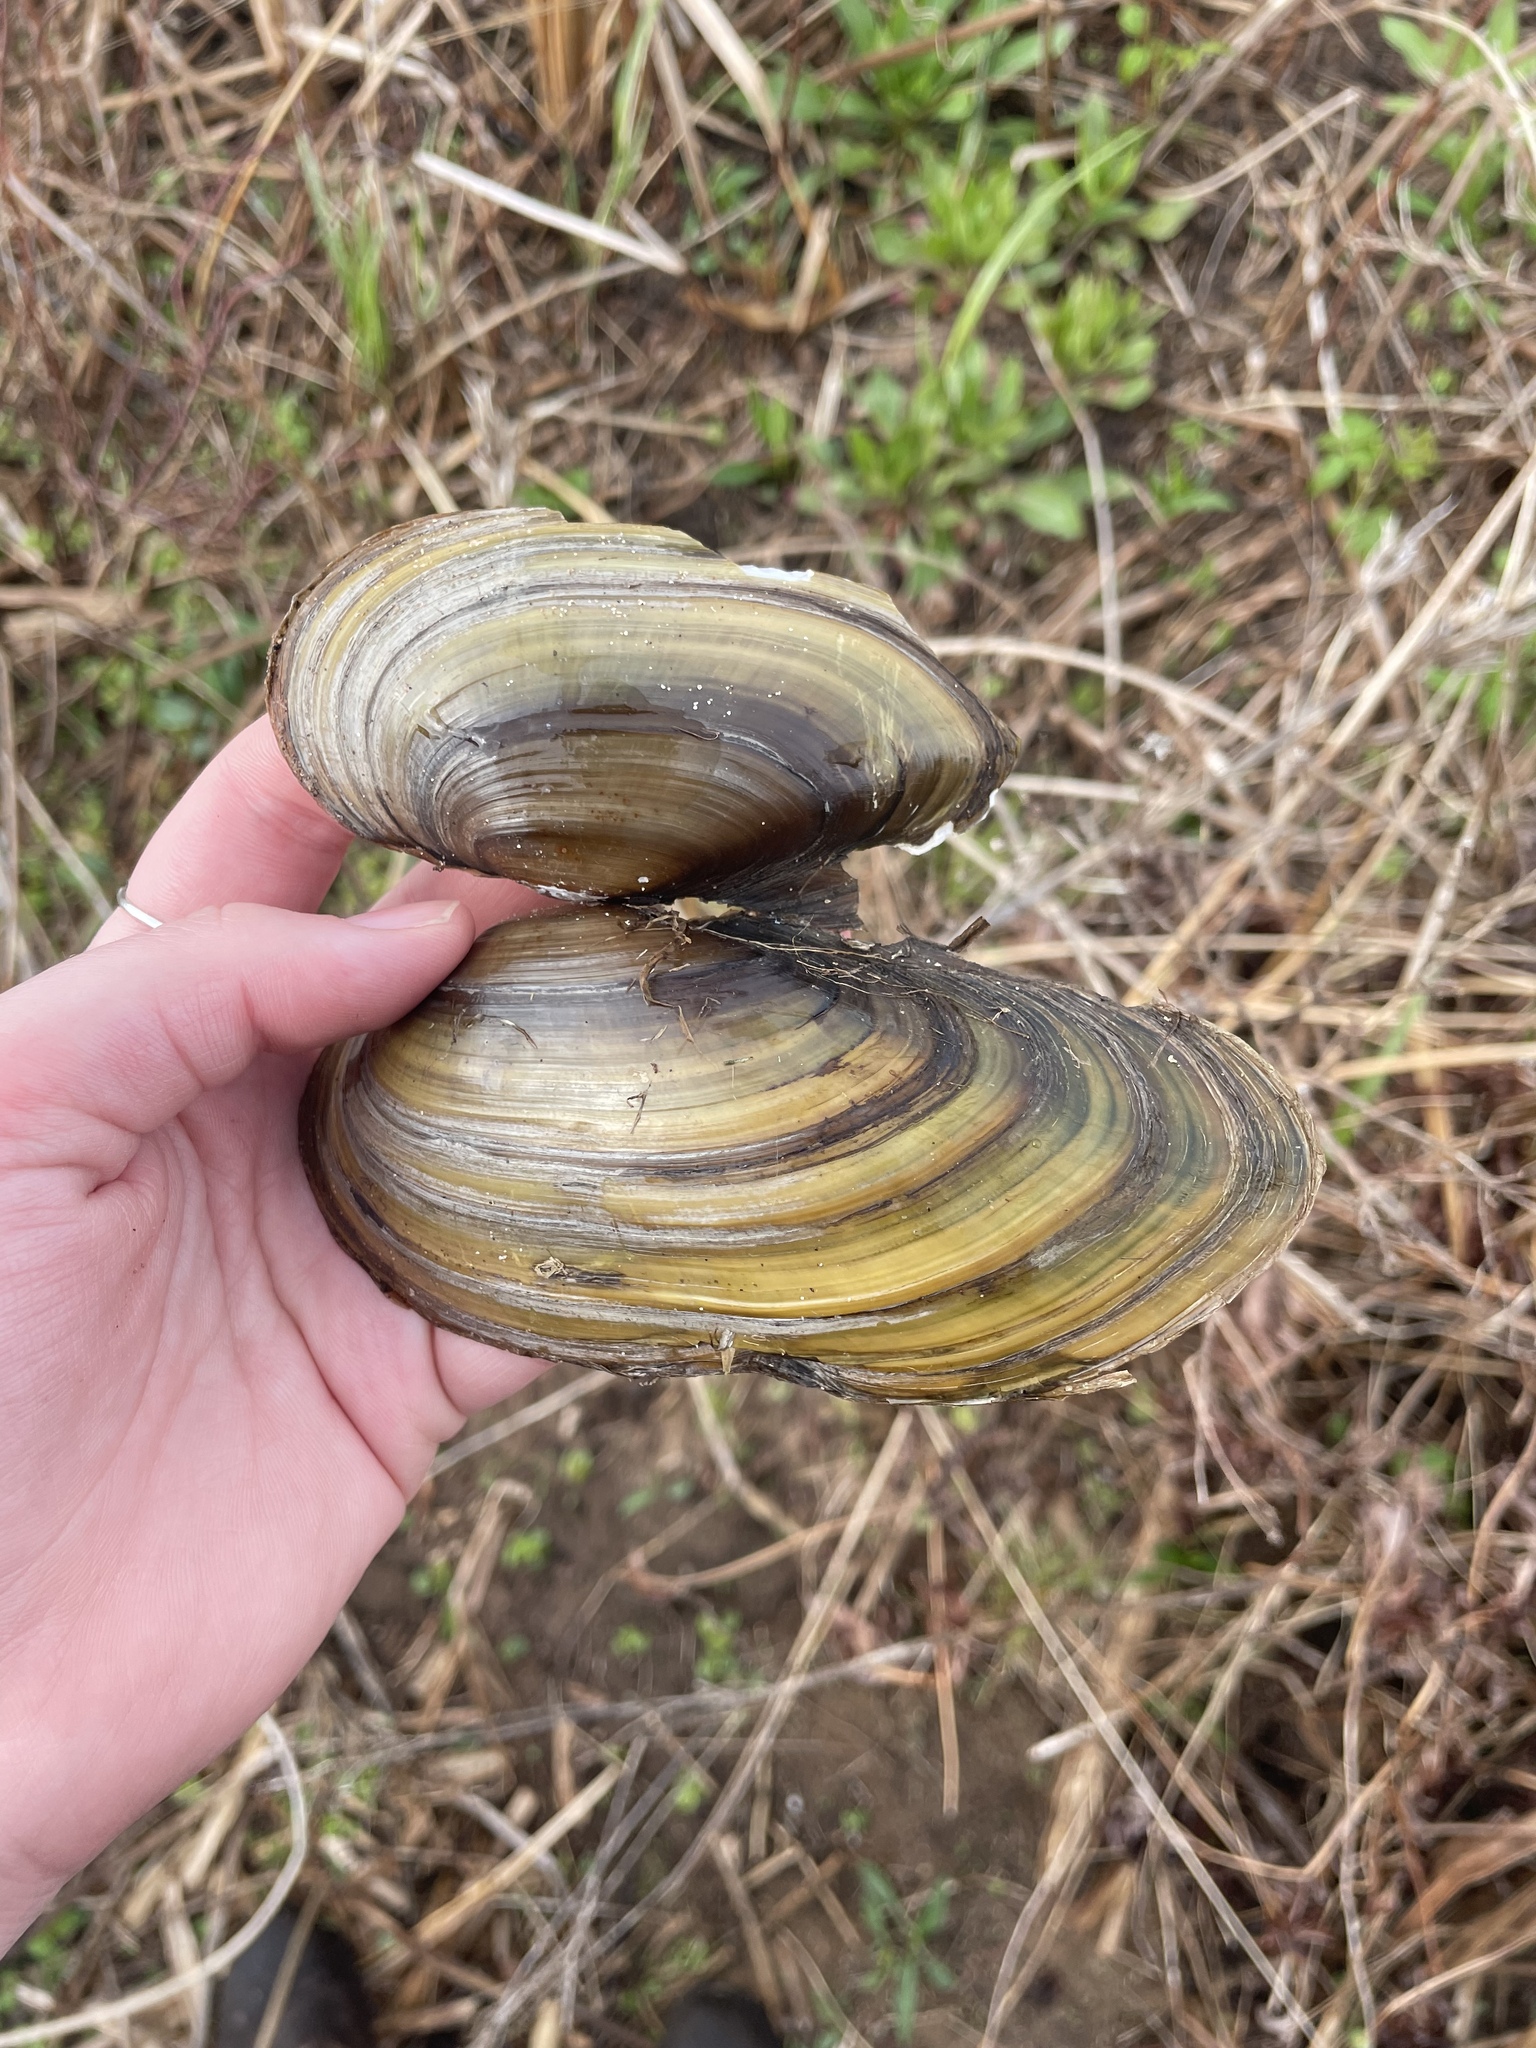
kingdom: Animalia
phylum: Mollusca
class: Bivalvia
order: Unionida
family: Unionidae
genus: Pyganodon
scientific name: Pyganodon cataracta
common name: Eastern floater
